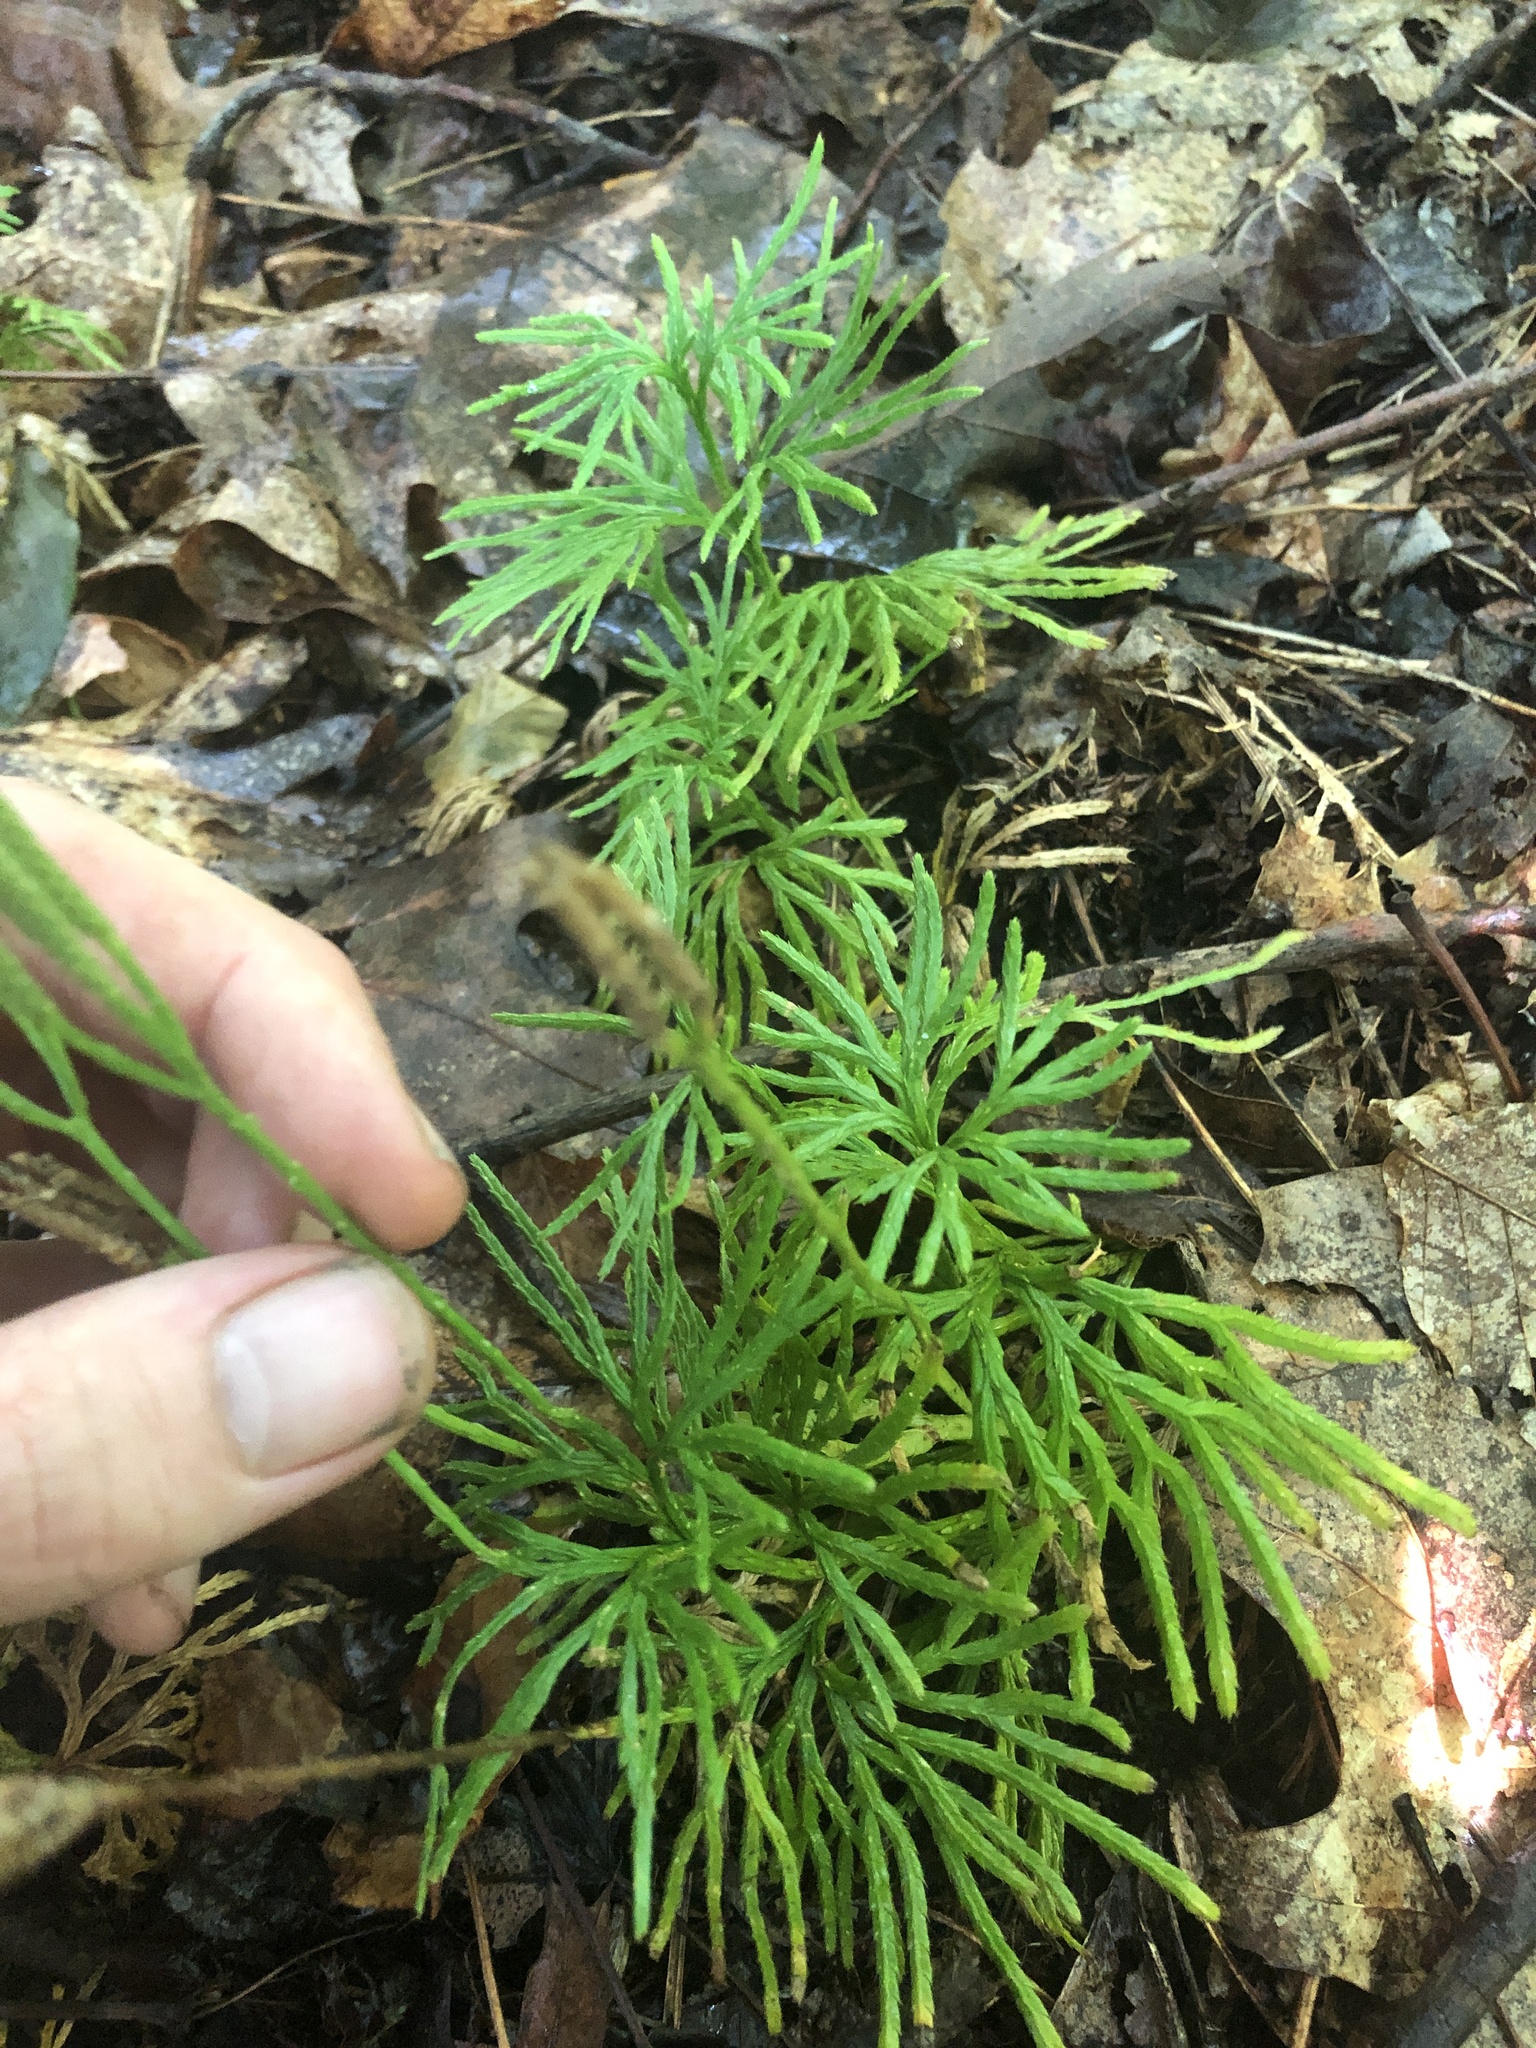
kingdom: Plantae
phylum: Tracheophyta
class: Lycopodiopsida
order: Lycopodiales
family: Lycopodiaceae
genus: Diphasiastrum
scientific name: Diphasiastrum digitatum
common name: Southern running-pine
